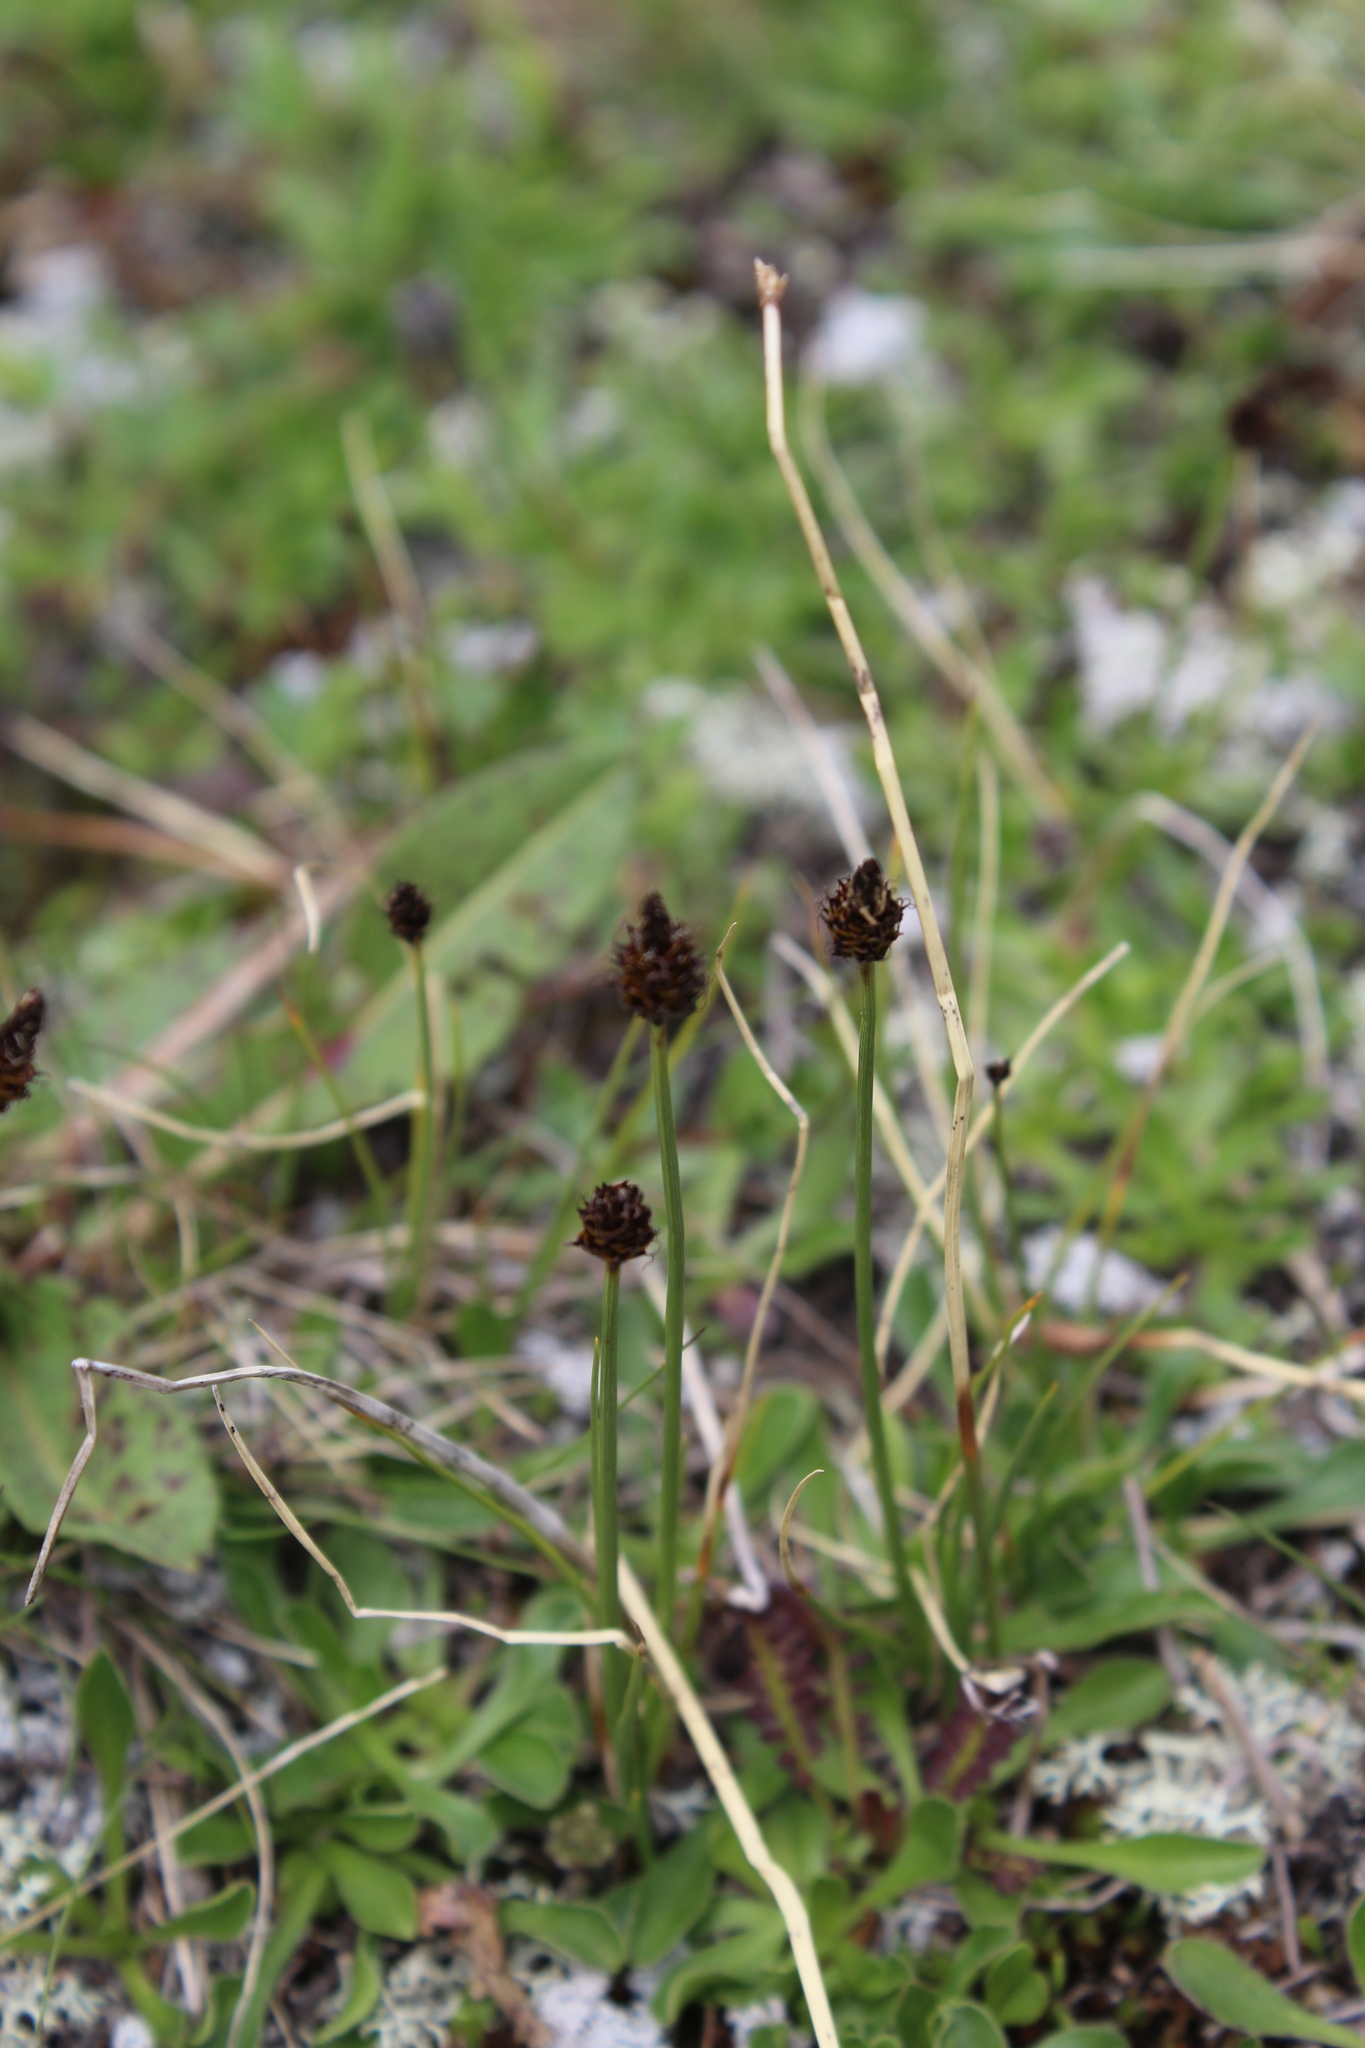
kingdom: Plantae
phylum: Tracheophyta
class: Liliopsida
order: Poales
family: Cyperaceae
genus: Carex
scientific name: Carex oreophila
